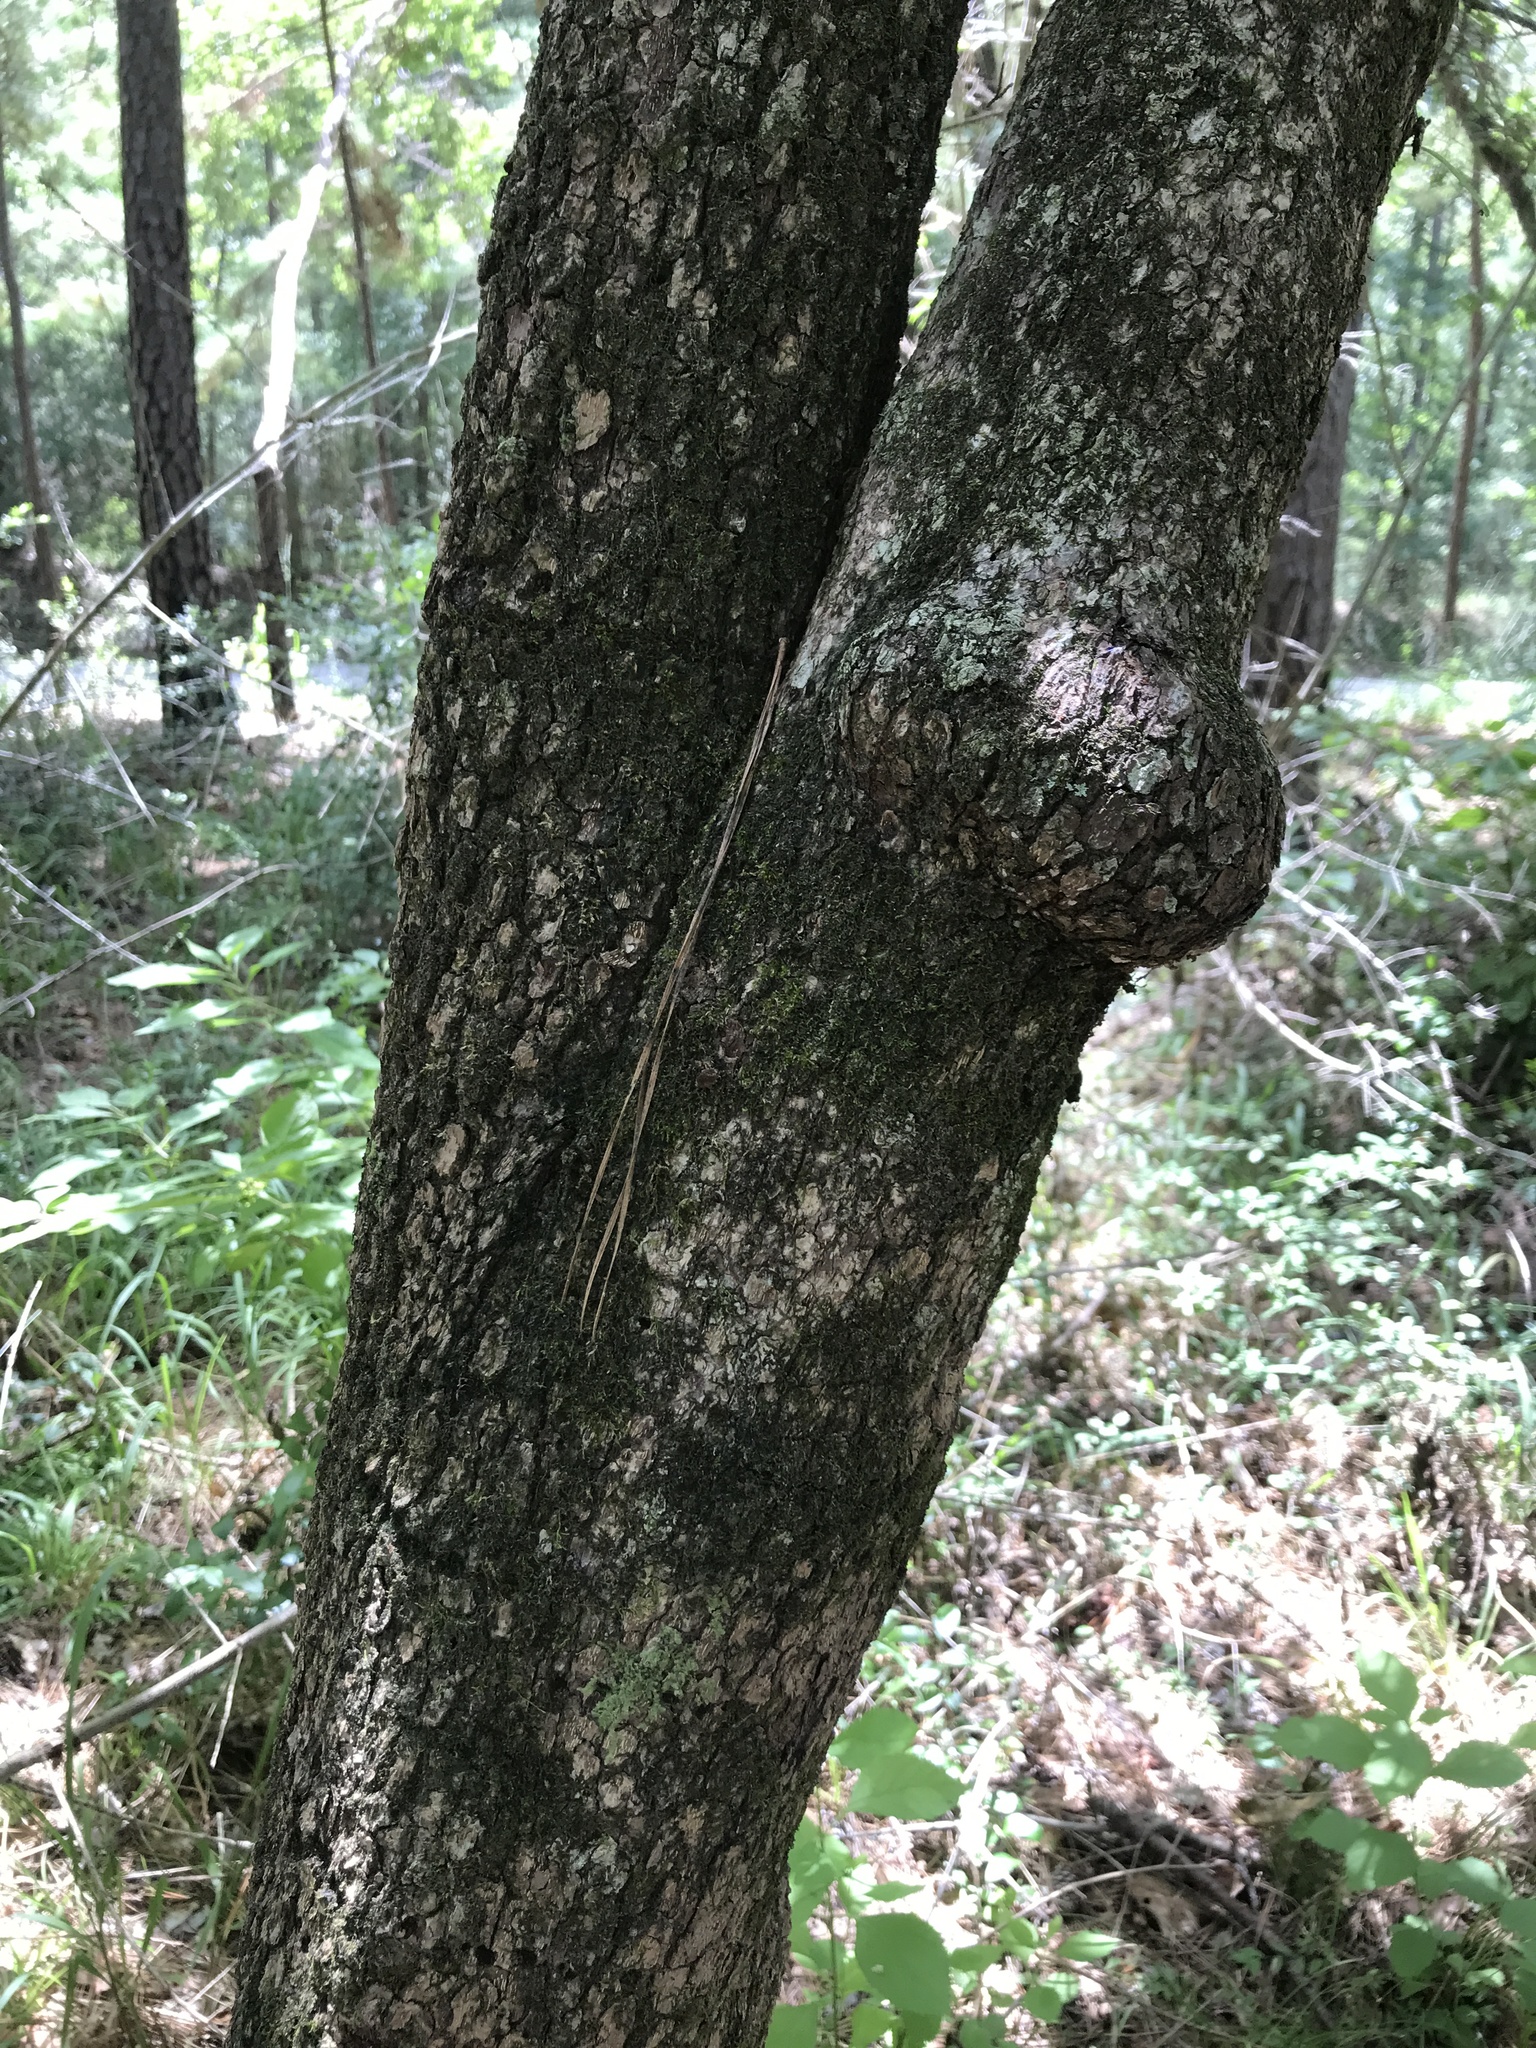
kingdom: Plantae
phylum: Tracheophyta
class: Magnoliopsida
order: Dipsacales
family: Viburnaceae
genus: Viburnum
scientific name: Viburnum rufidulum
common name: Blue haw
